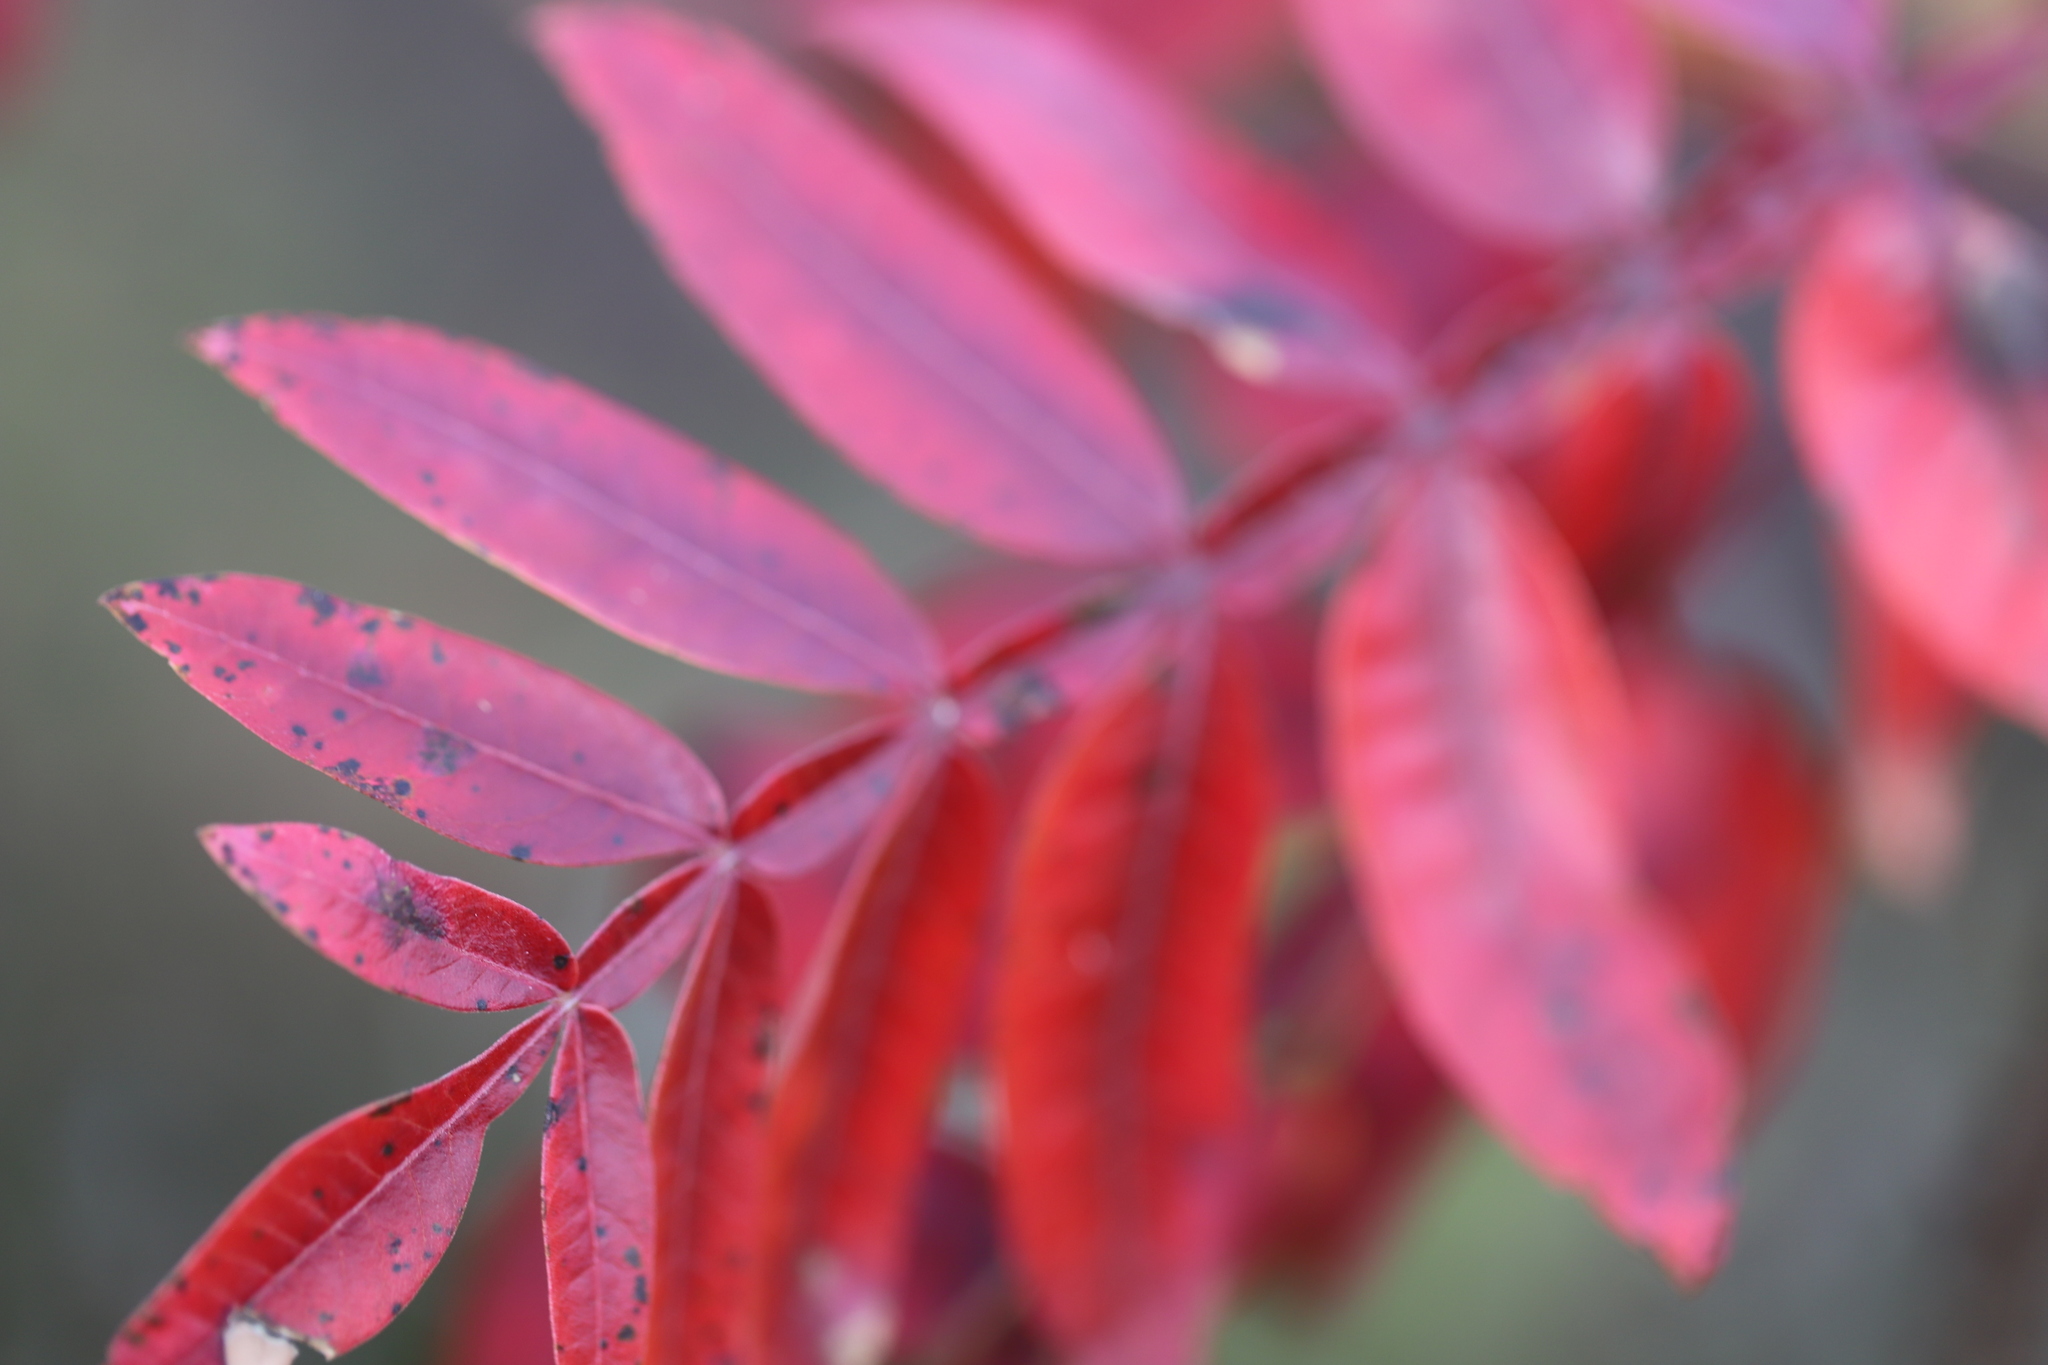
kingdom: Plantae
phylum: Tracheophyta
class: Magnoliopsida
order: Sapindales
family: Anacardiaceae
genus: Rhus
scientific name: Rhus copallina
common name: Shining sumac
